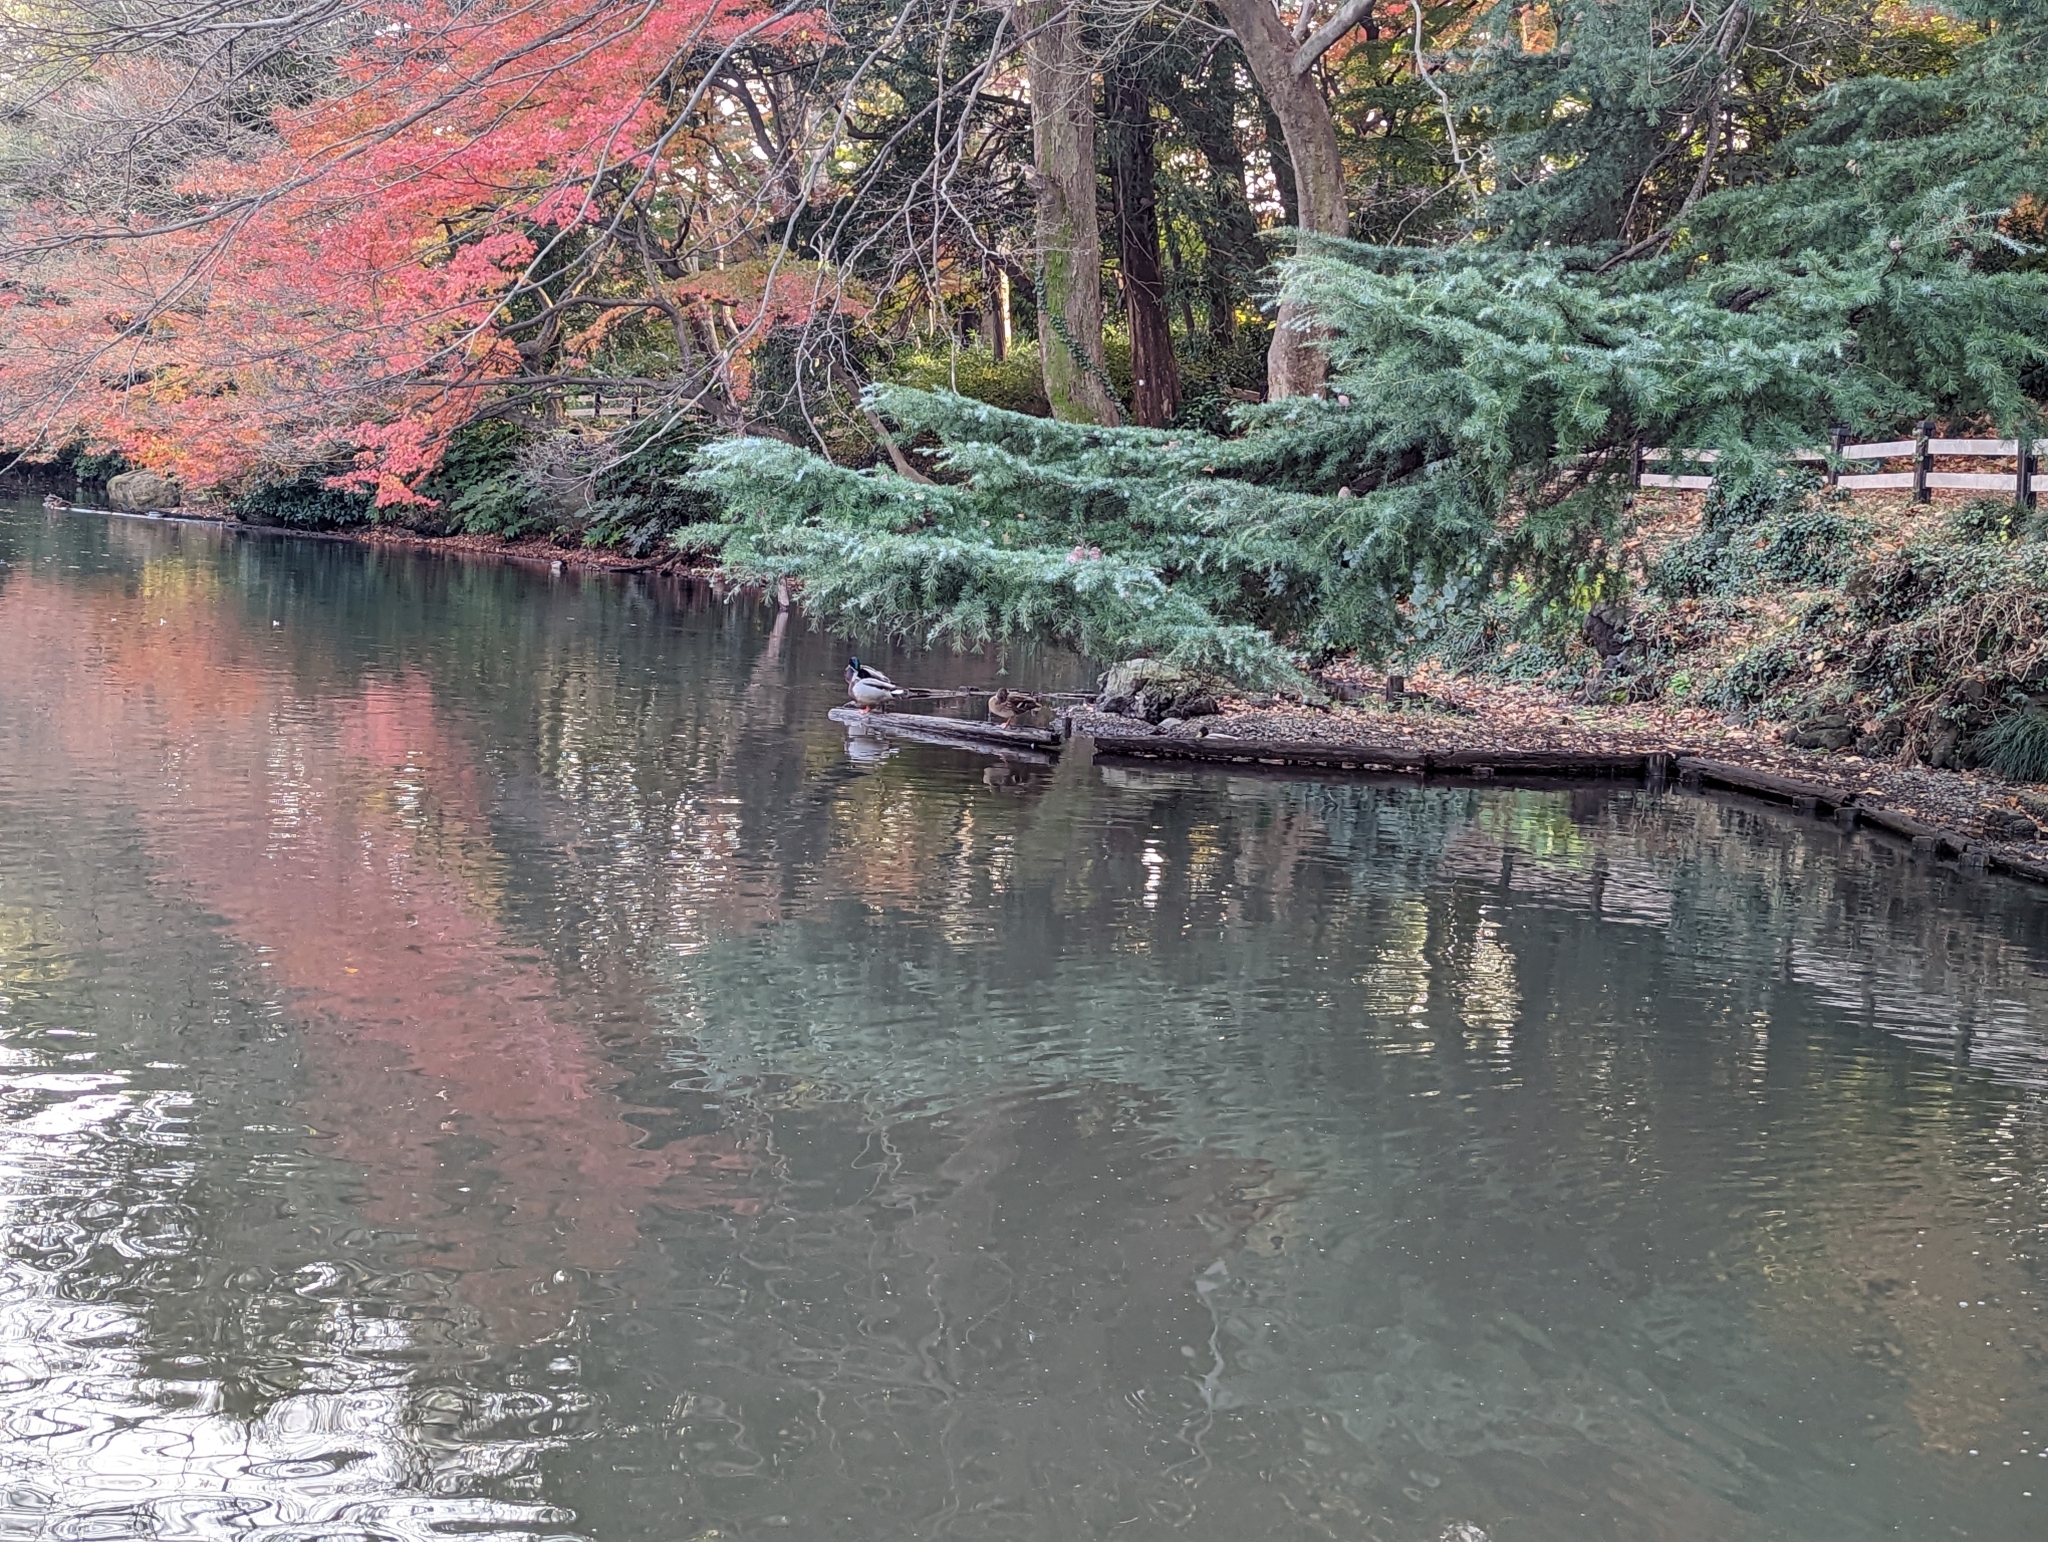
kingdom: Animalia
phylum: Chordata
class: Aves
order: Anseriformes
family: Anatidae
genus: Anas
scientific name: Anas platyrhynchos
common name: Mallard
